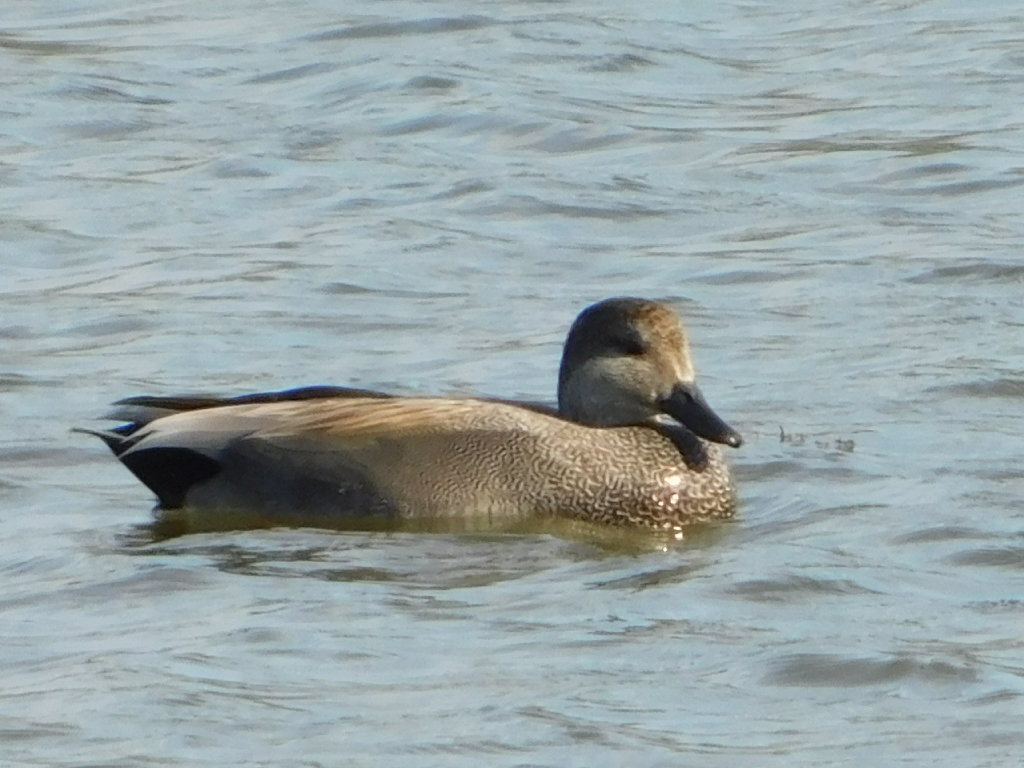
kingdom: Animalia
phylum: Chordata
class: Aves
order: Anseriformes
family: Anatidae
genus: Mareca
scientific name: Mareca strepera
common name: Gadwall
